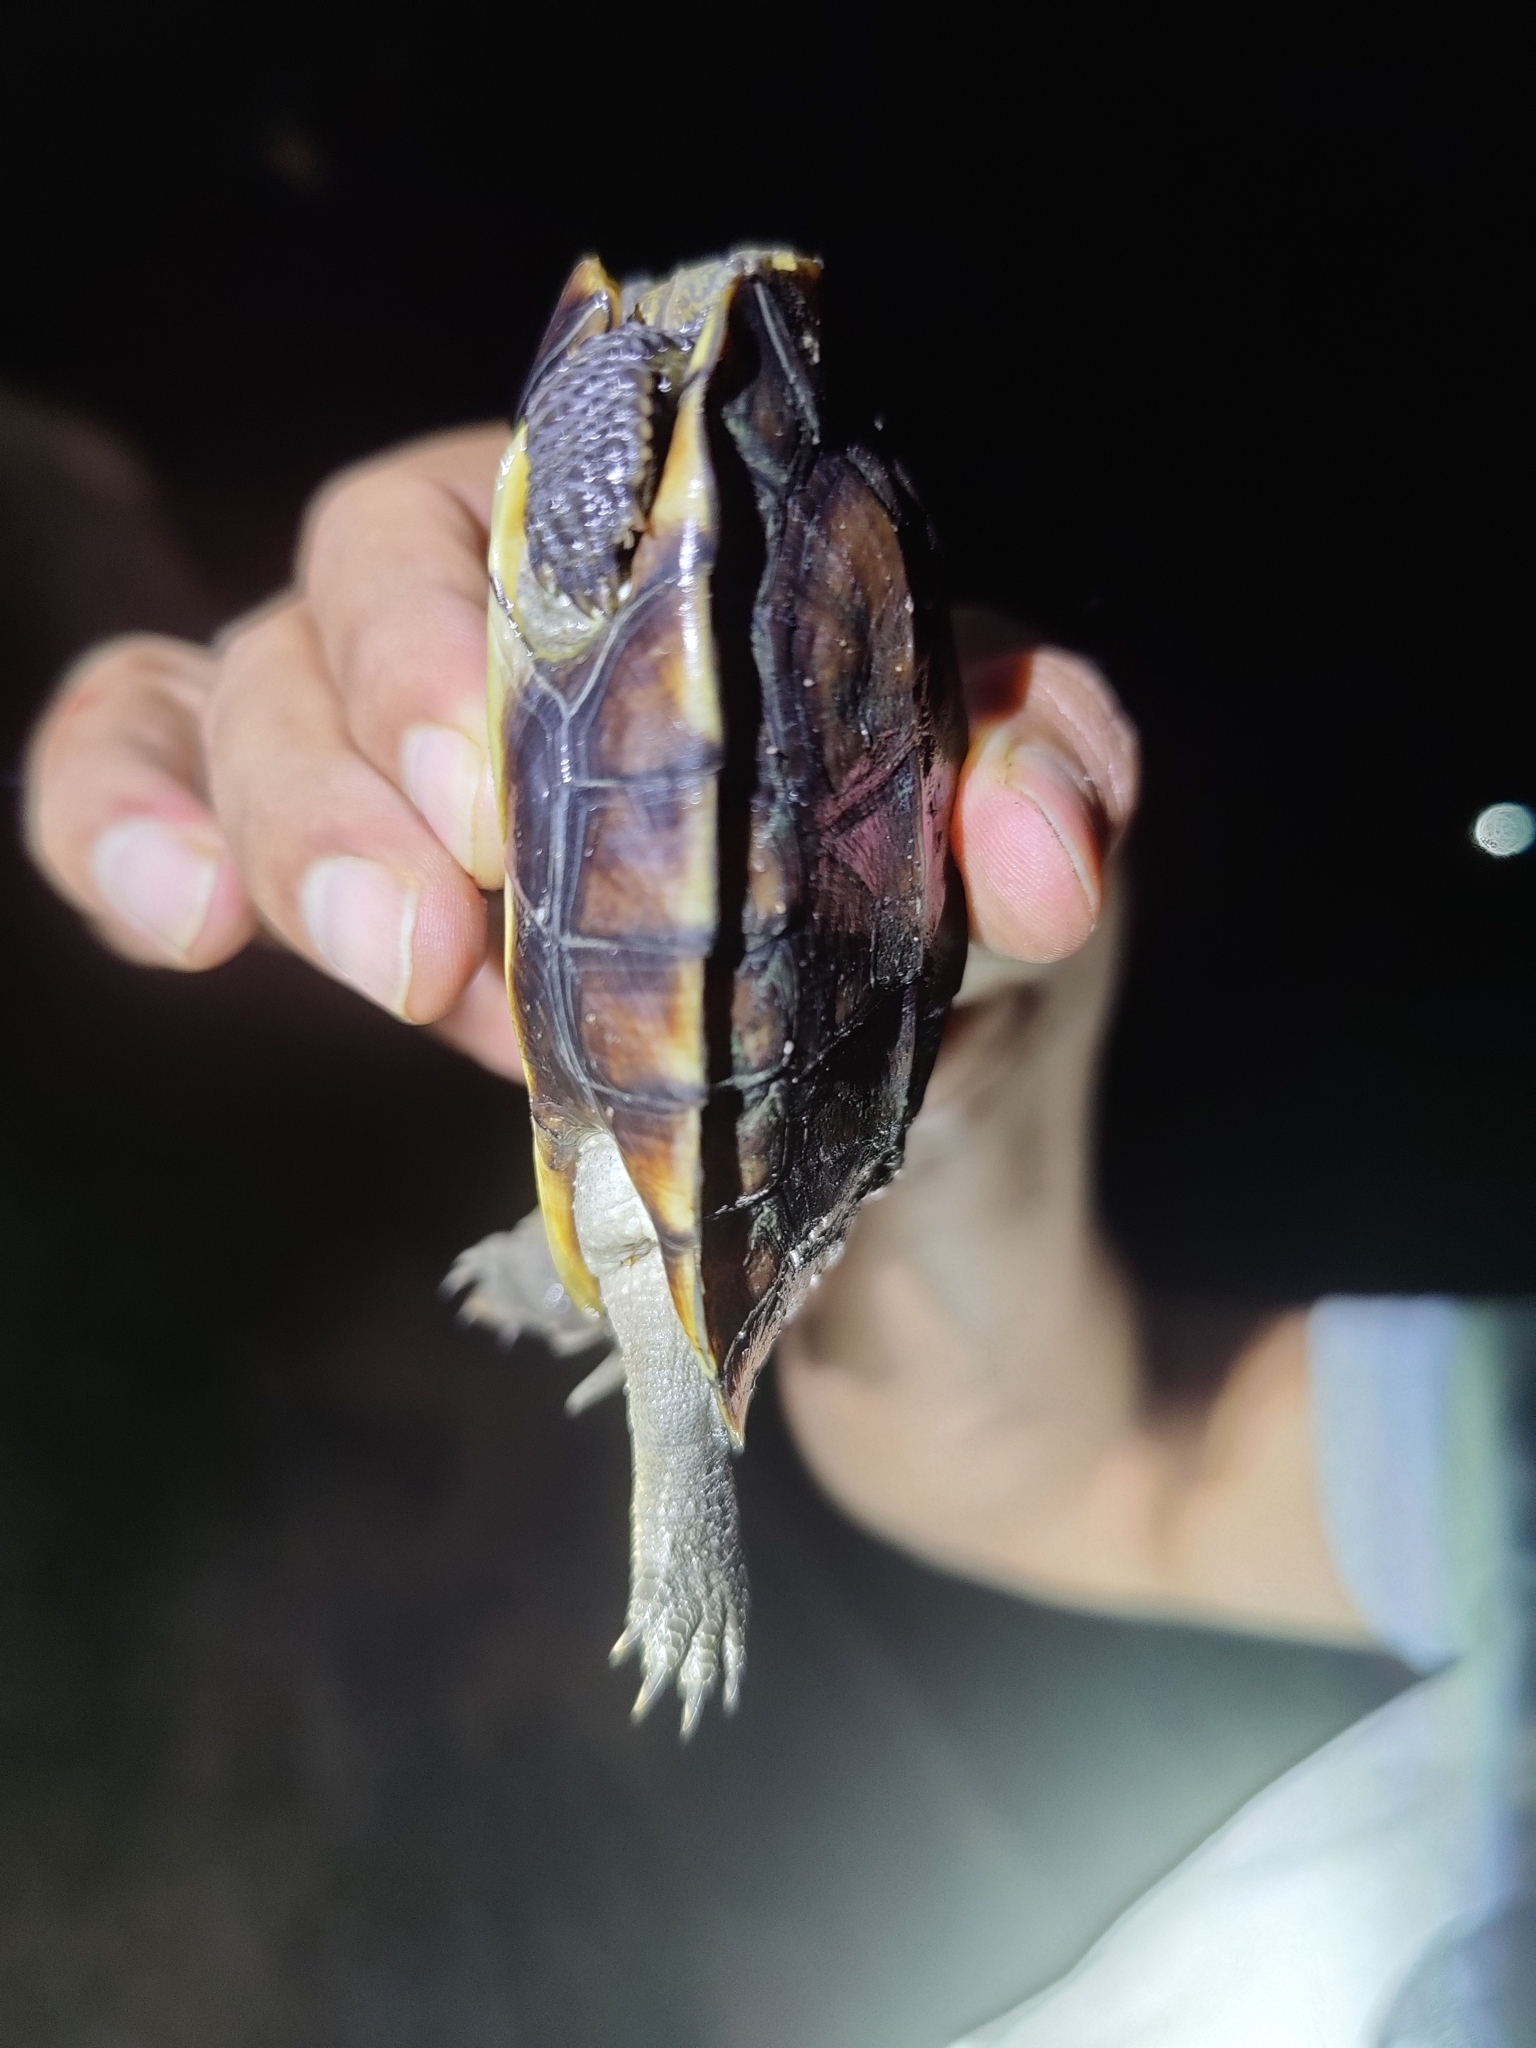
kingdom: Animalia
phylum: Chordata
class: Testudines
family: Geoemydidae
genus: Melanochelys
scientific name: Melanochelys trijuga
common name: Indian black turtle
